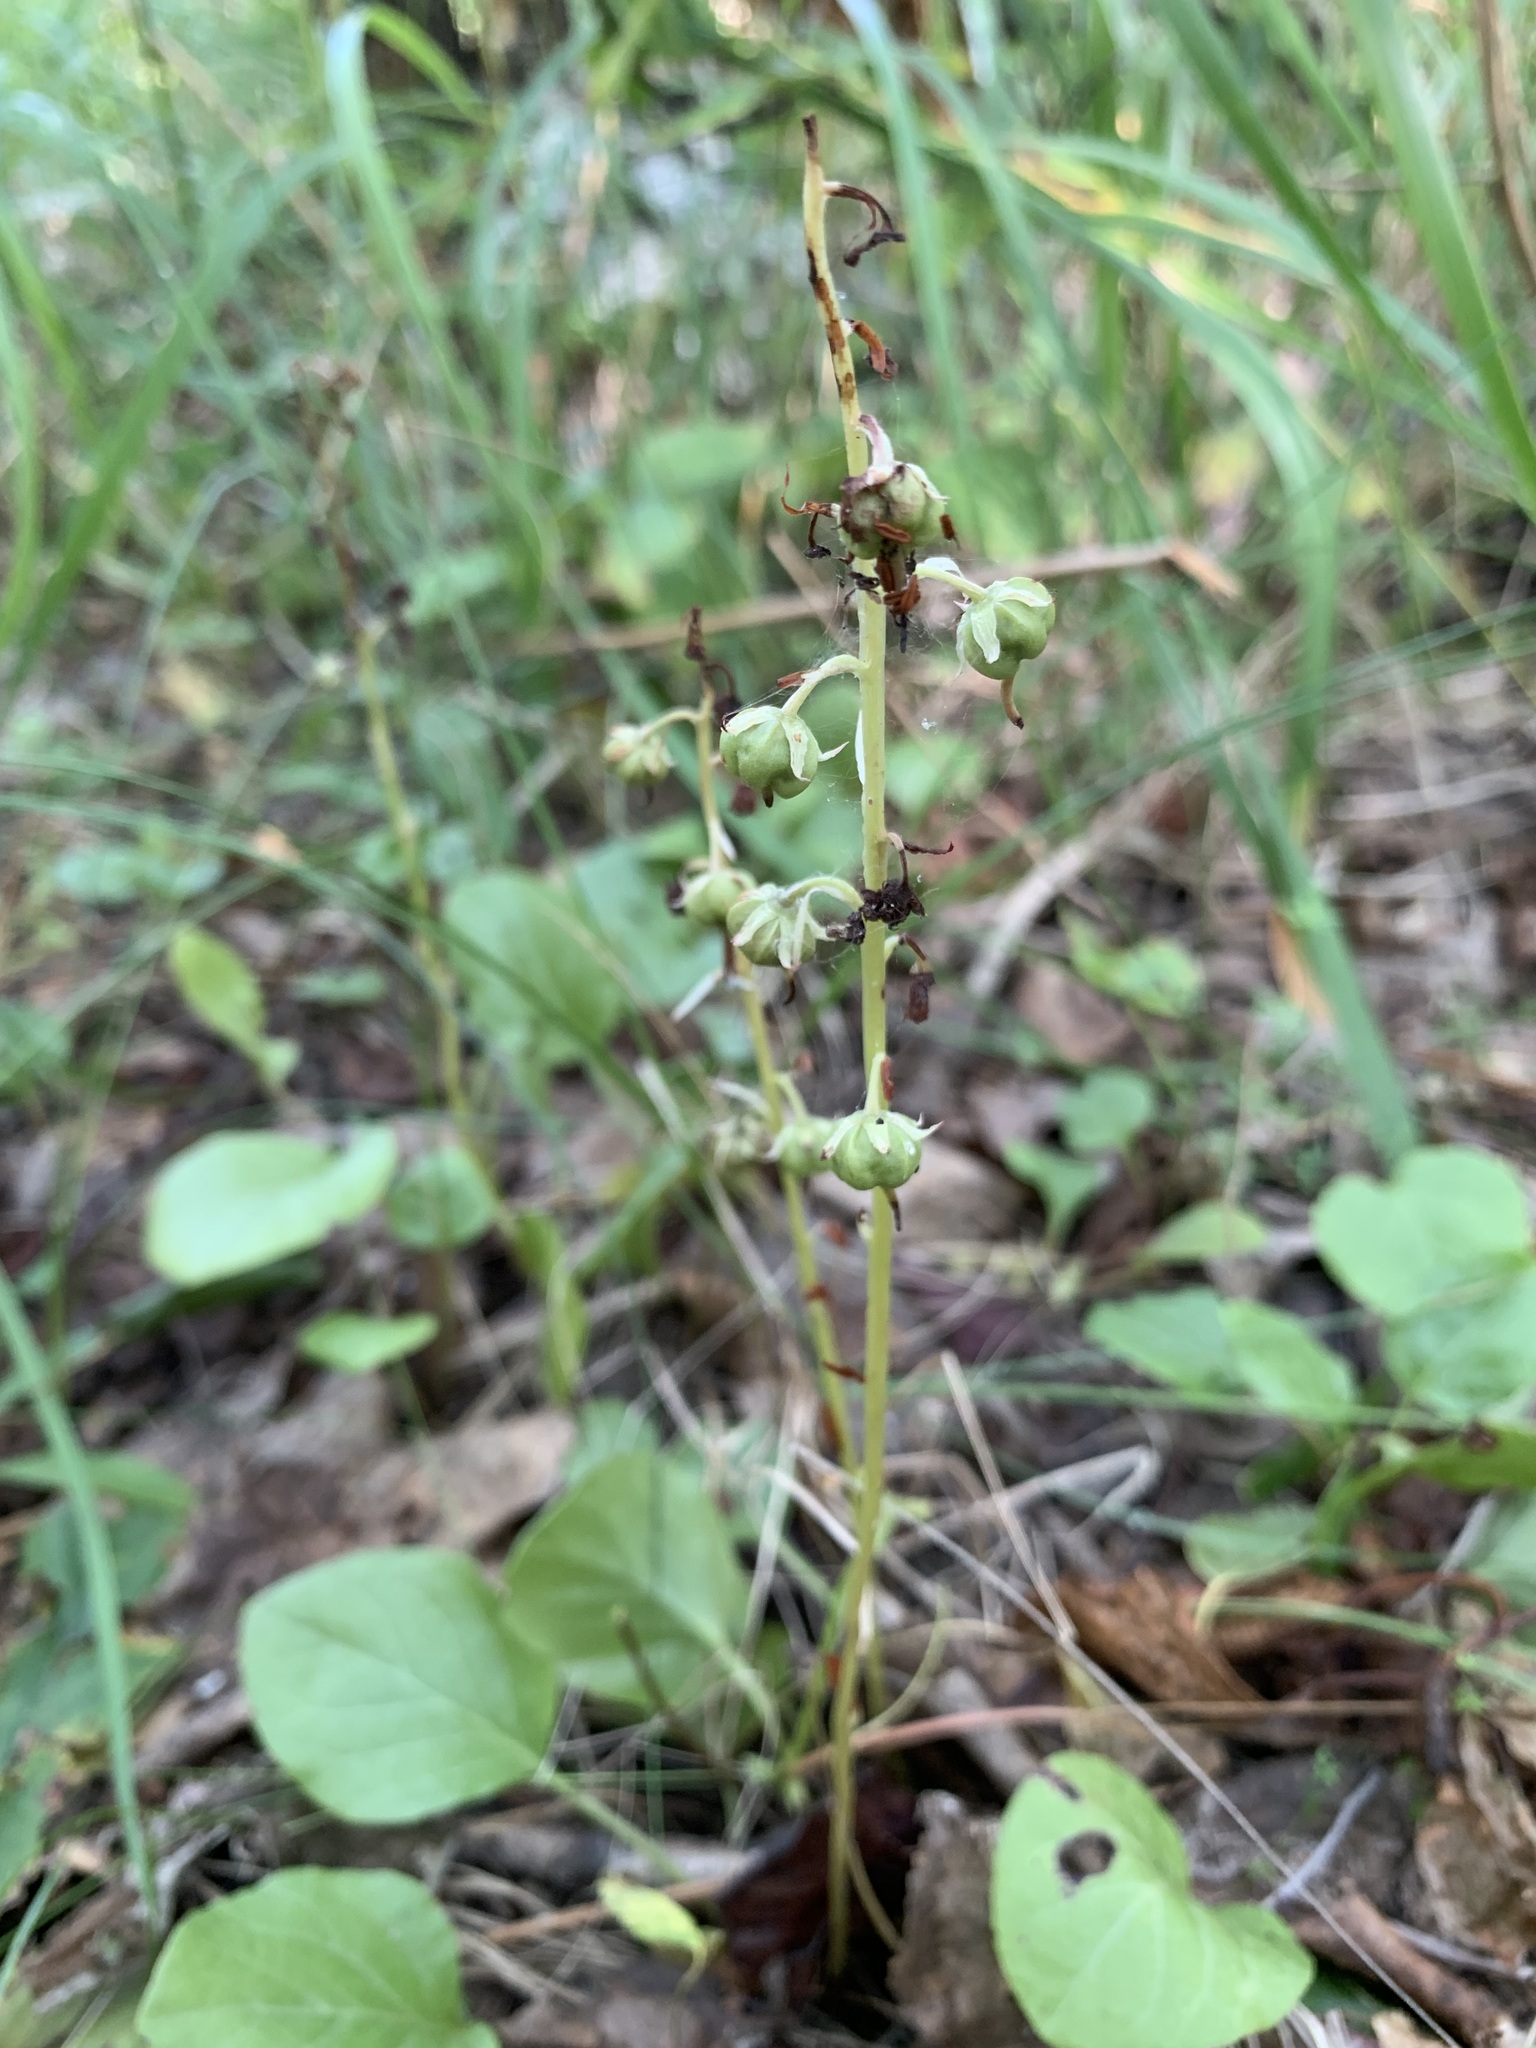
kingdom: Plantae
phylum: Tracheophyta
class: Magnoliopsida
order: Ericales
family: Ericaceae
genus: Pyrola
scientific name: Pyrola rotundifolia
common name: Round-leaved wintergreen
